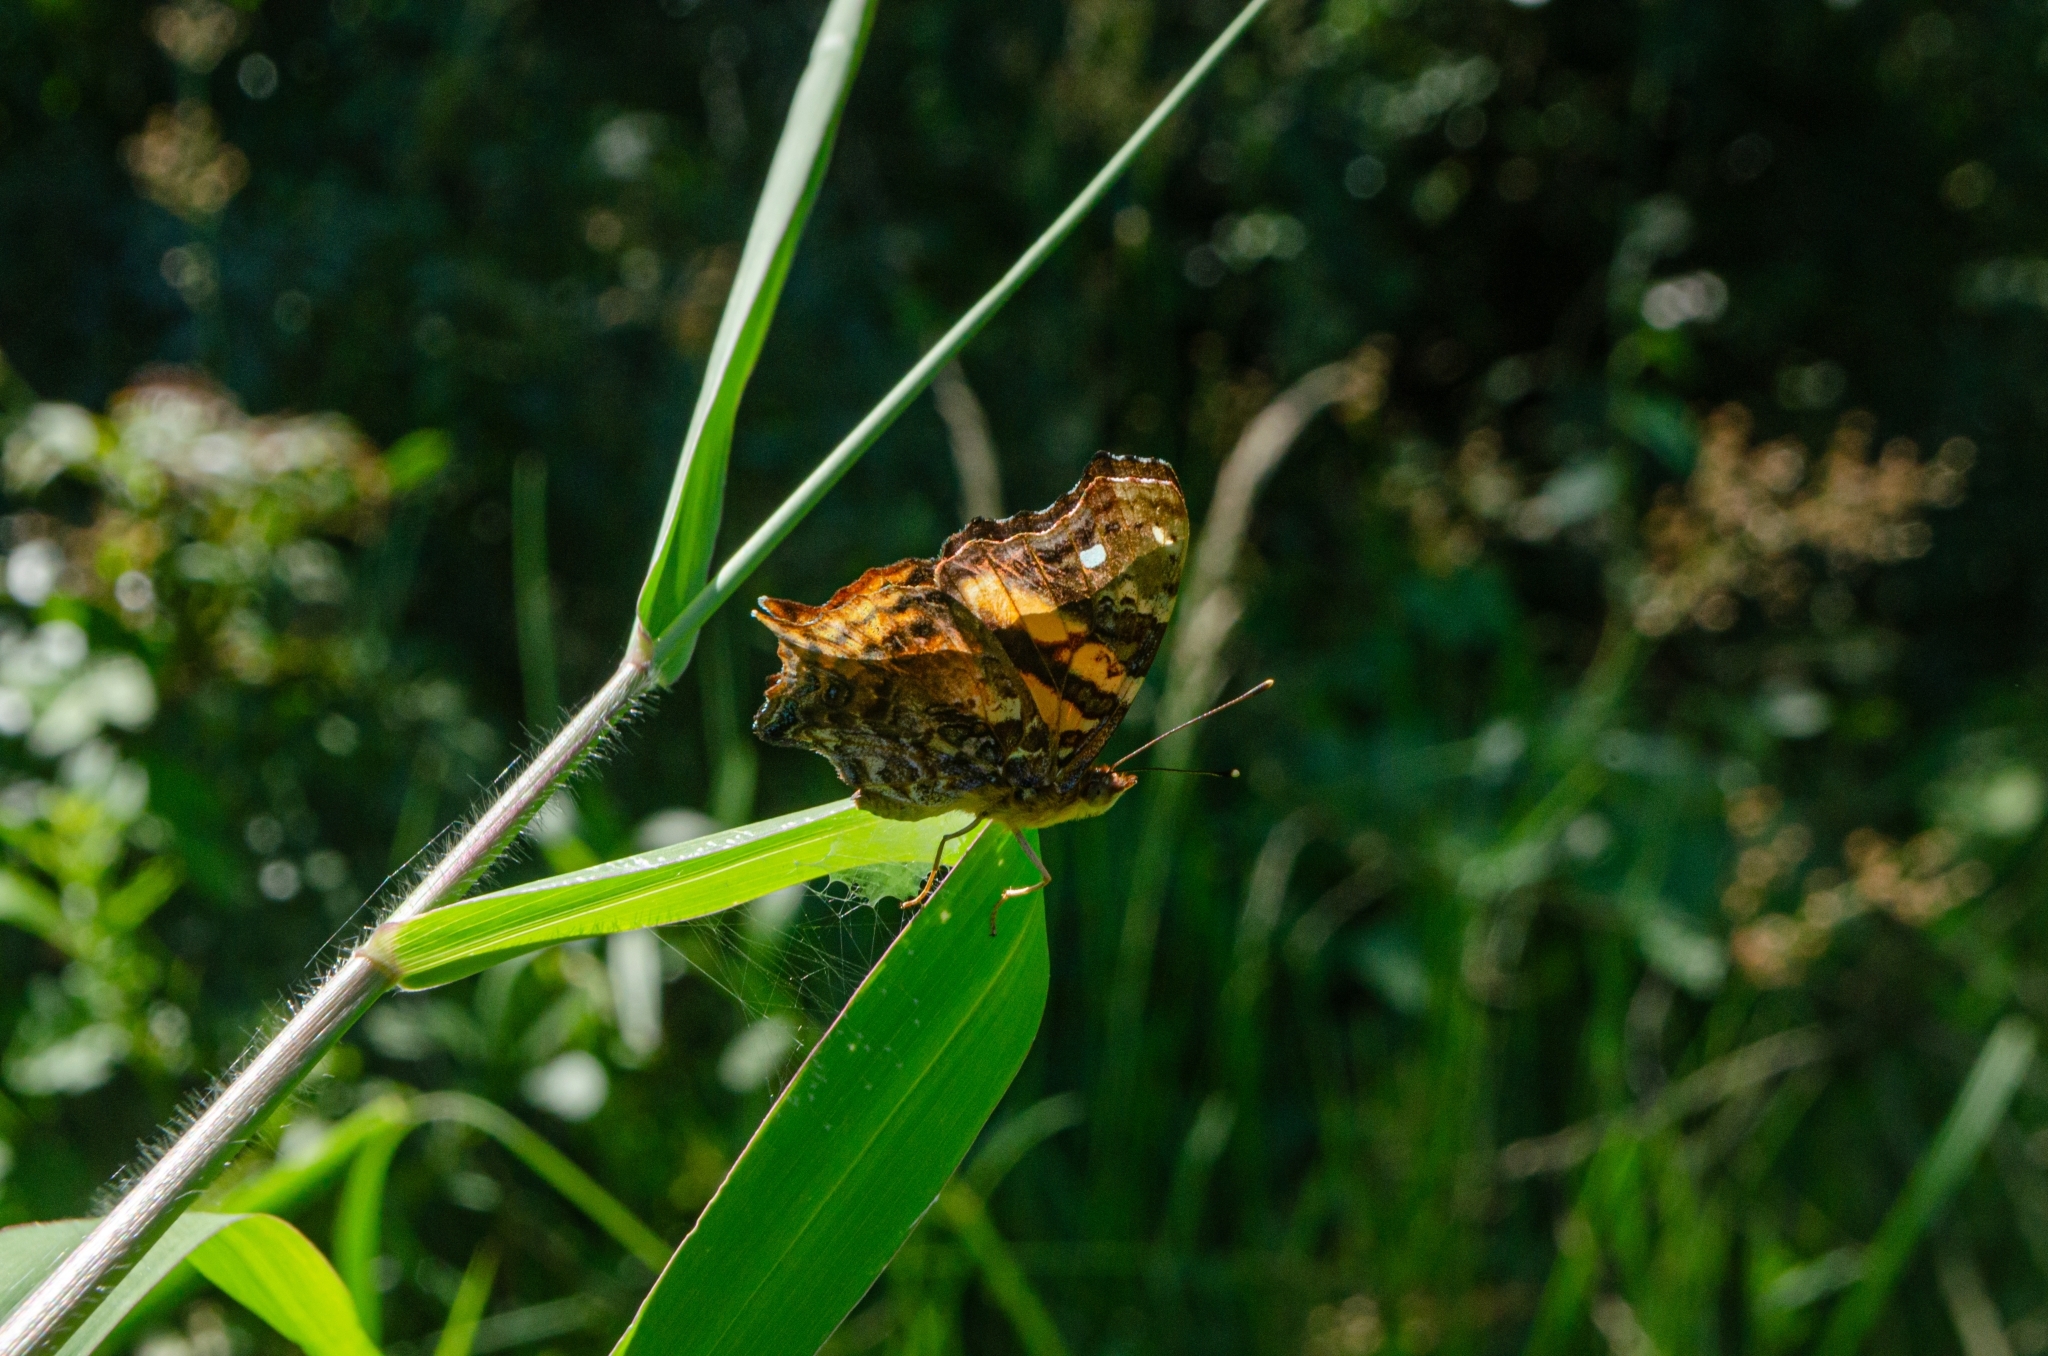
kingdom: Animalia
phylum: Arthropoda
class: Insecta
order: Lepidoptera
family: Nymphalidae
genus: Hypanartia
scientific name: Hypanartia bella
